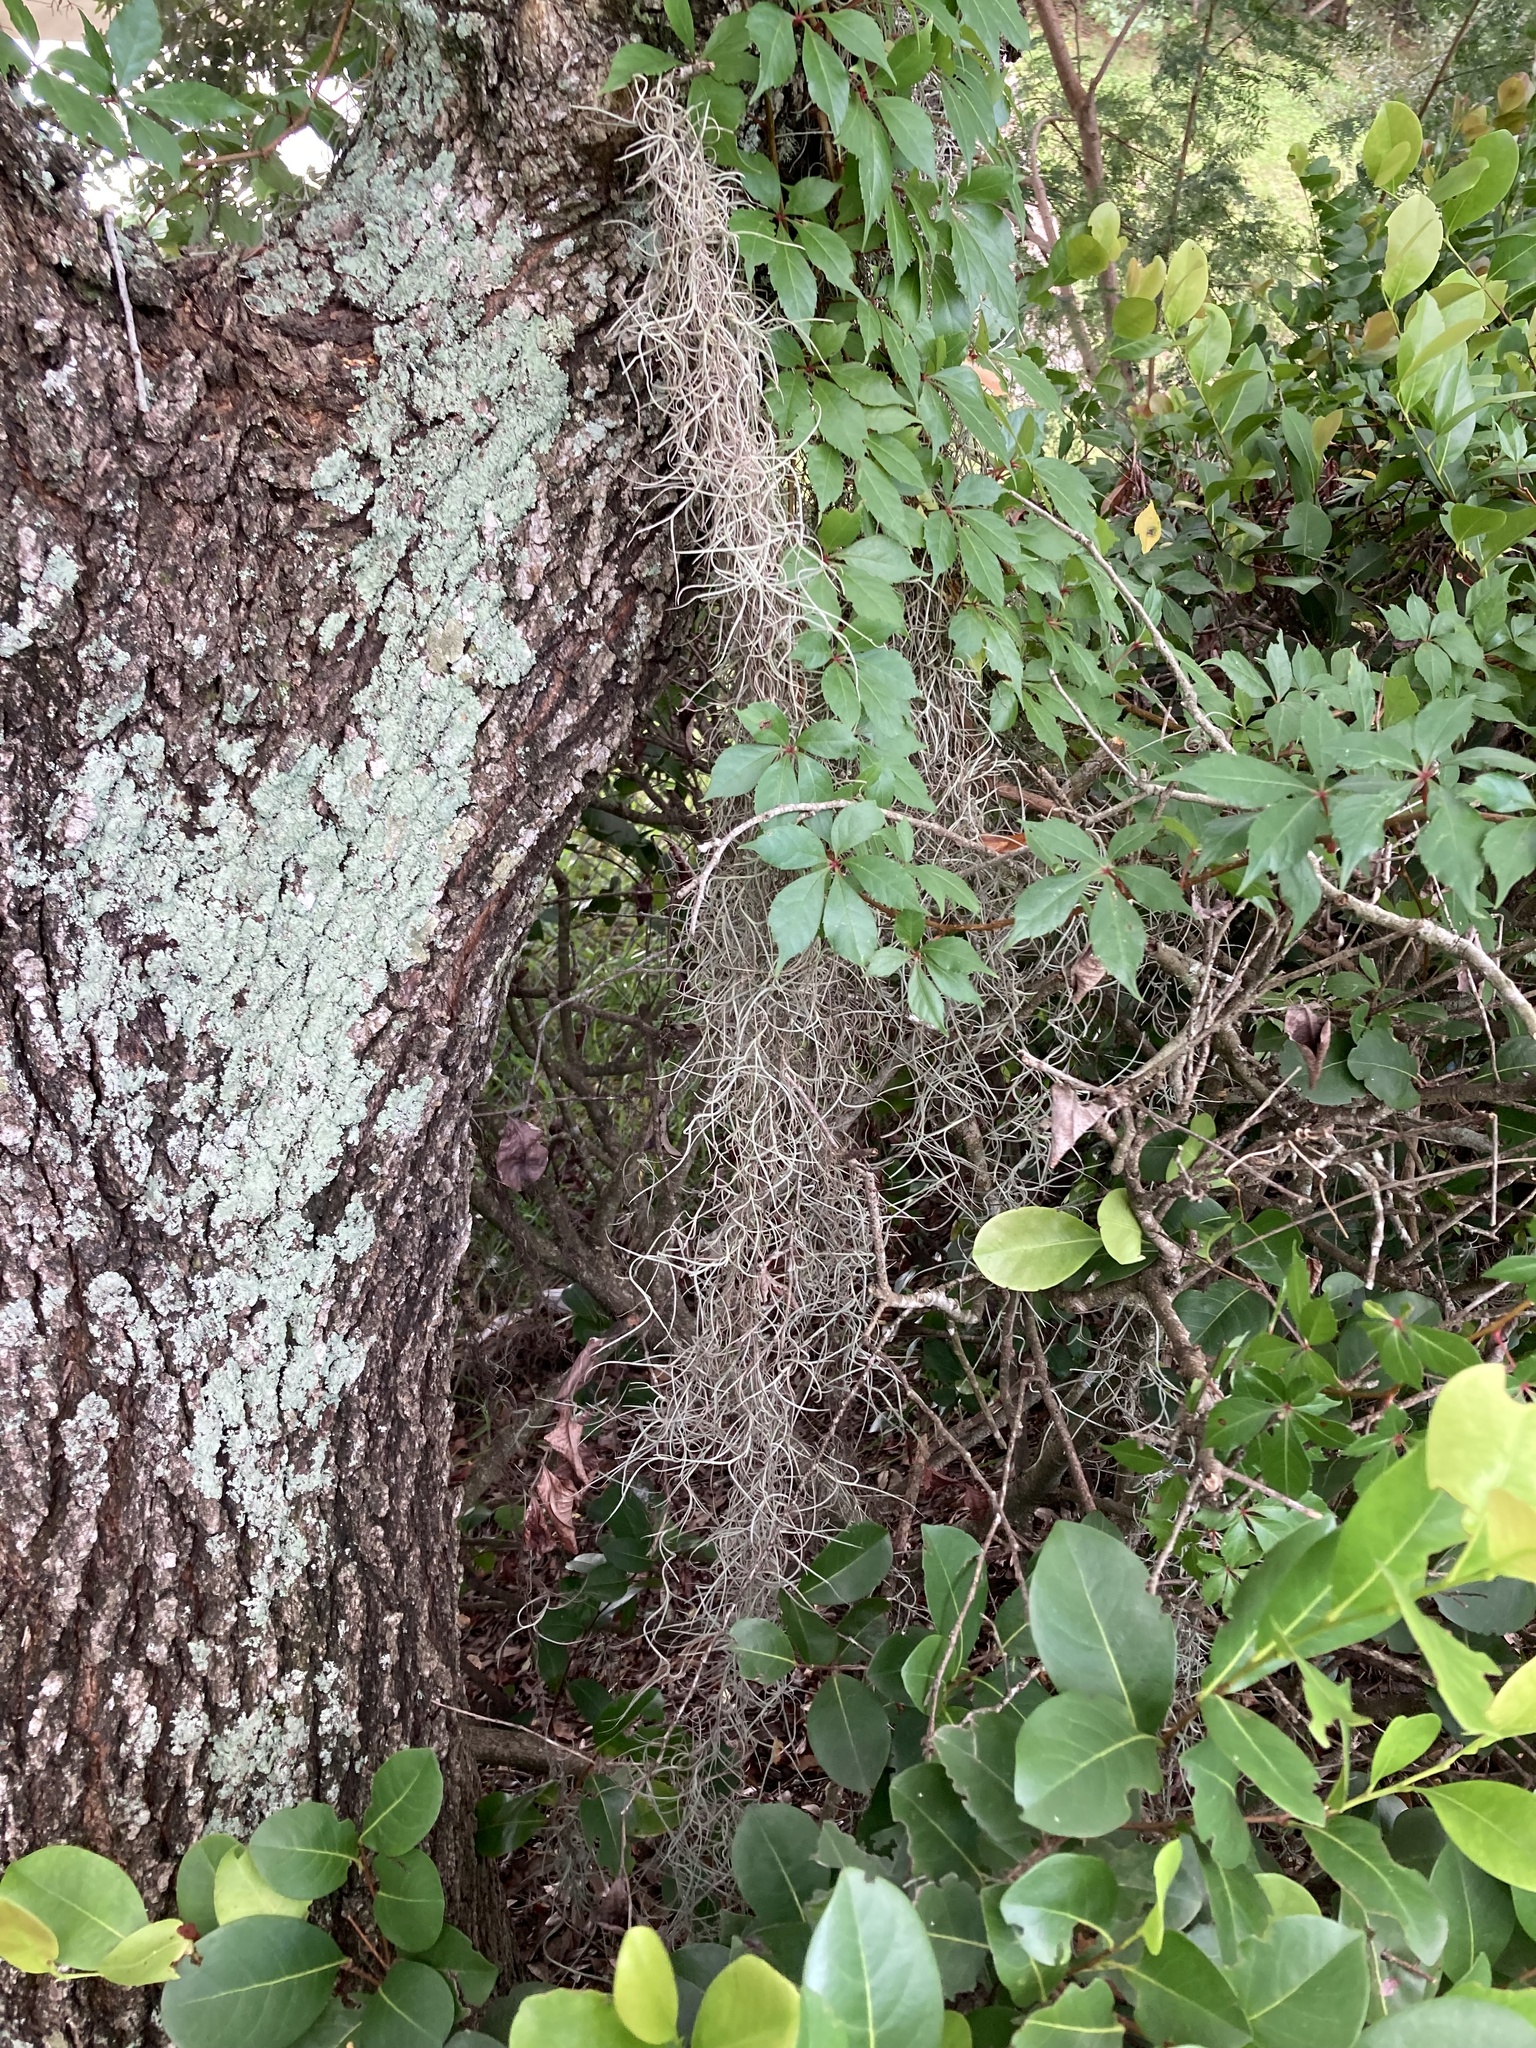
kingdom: Plantae
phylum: Tracheophyta
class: Liliopsida
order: Poales
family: Bromeliaceae
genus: Tillandsia
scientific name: Tillandsia usneoides
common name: Spanish moss
